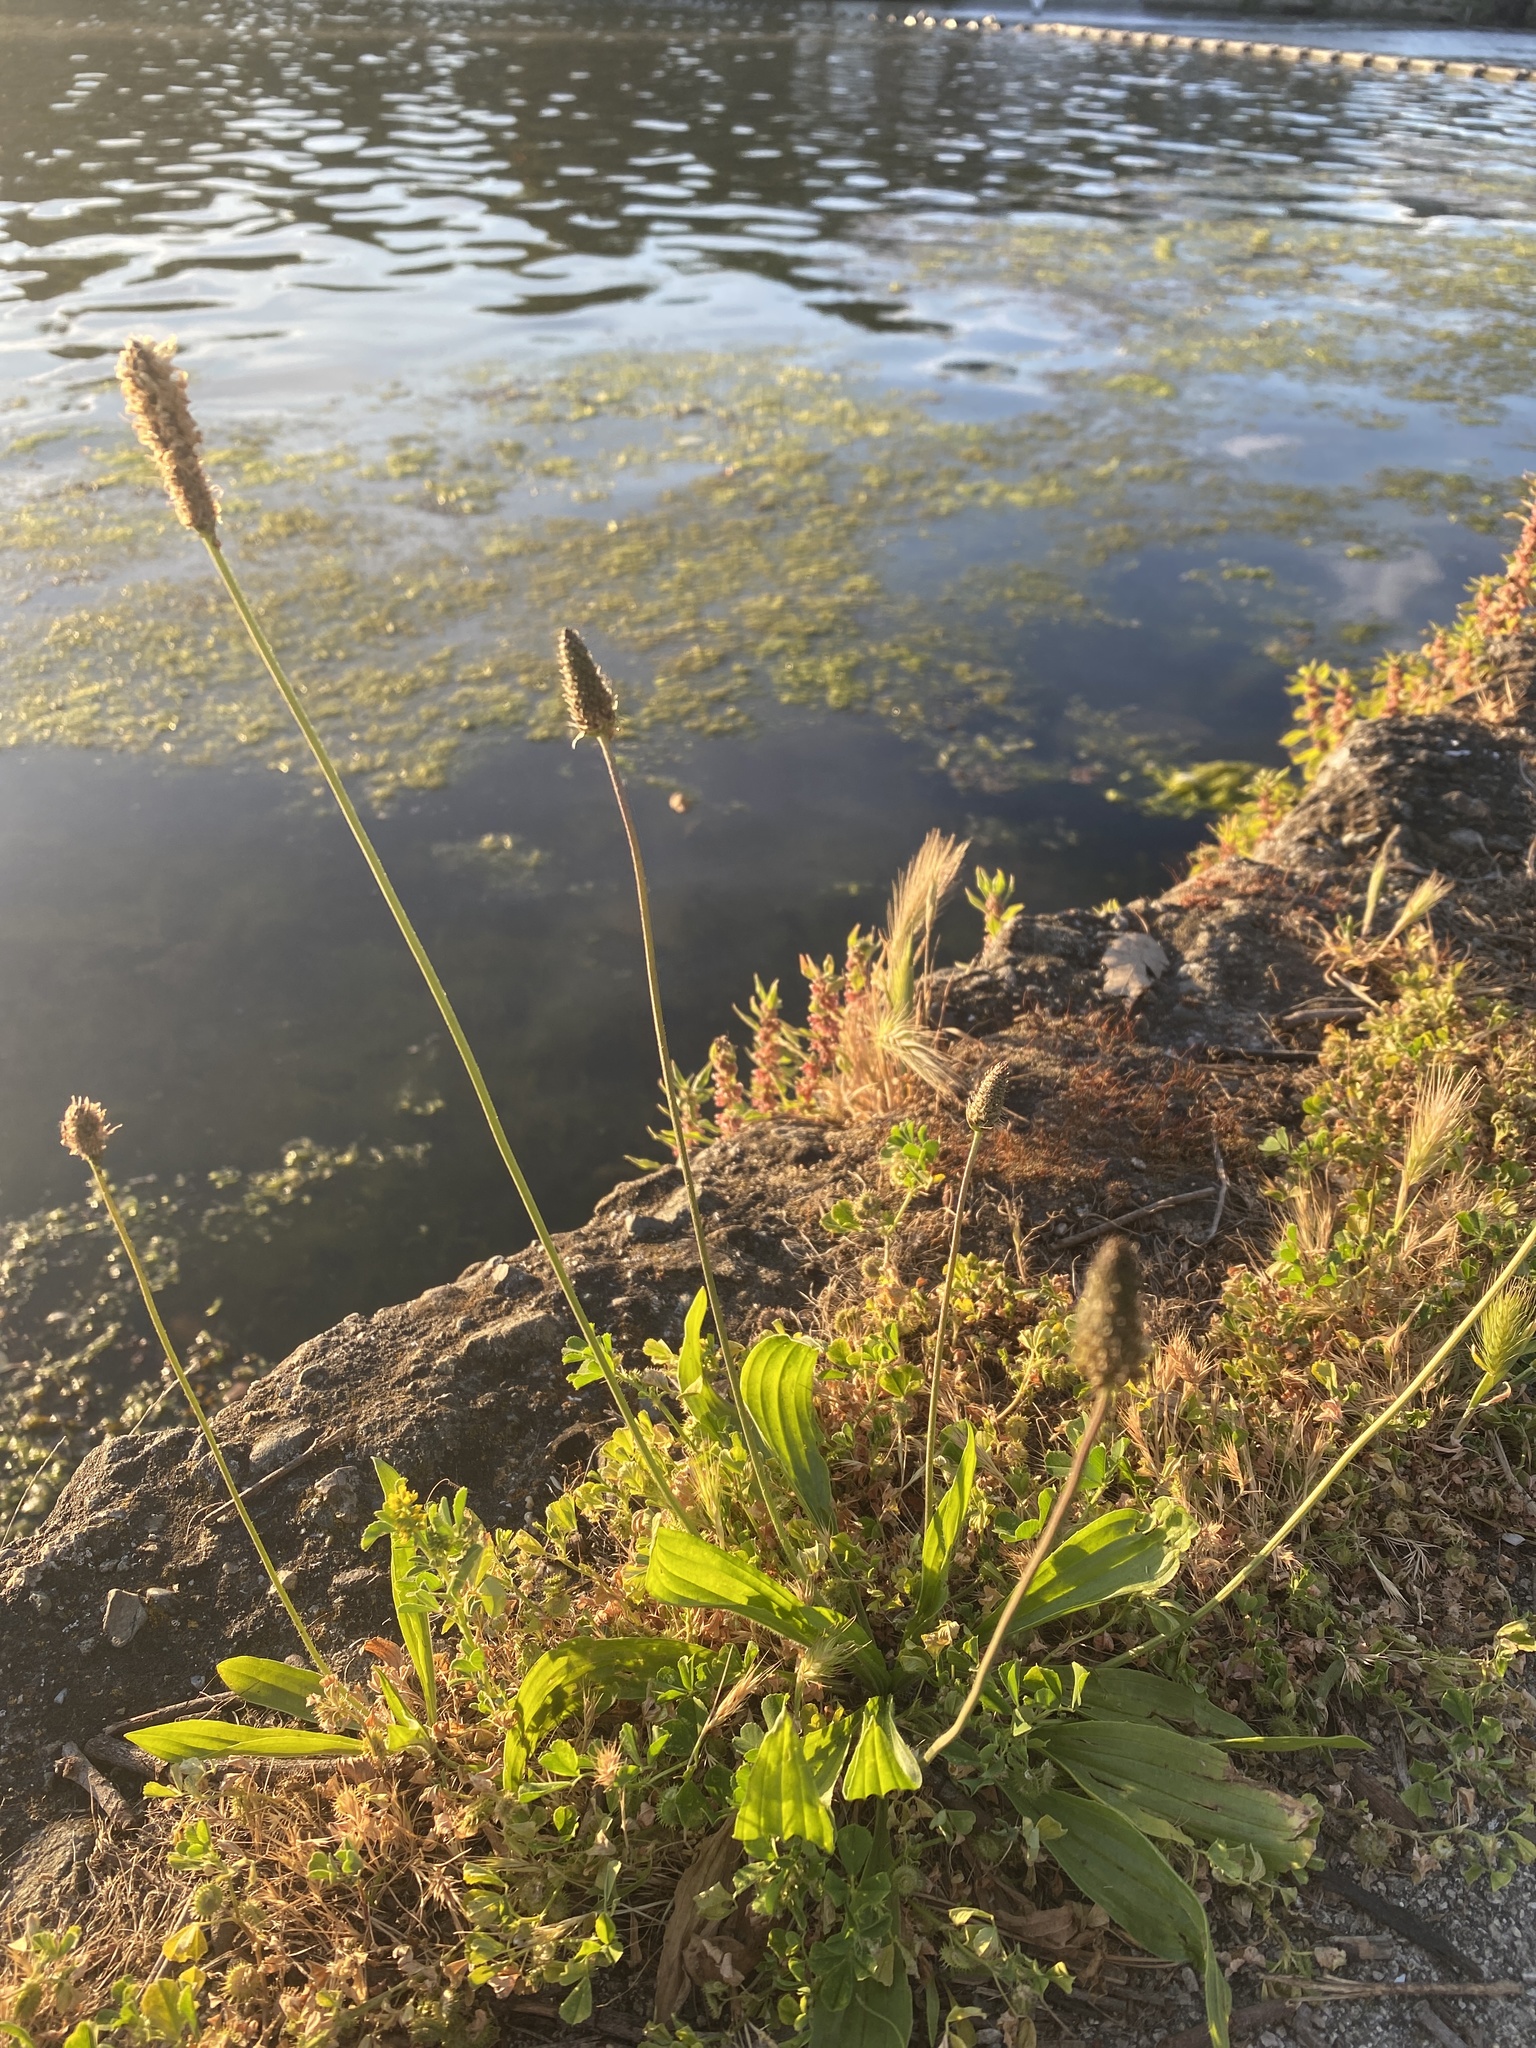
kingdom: Plantae
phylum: Tracheophyta
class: Magnoliopsida
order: Lamiales
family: Plantaginaceae
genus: Plantago
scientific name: Plantago lanceolata
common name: Ribwort plantain
